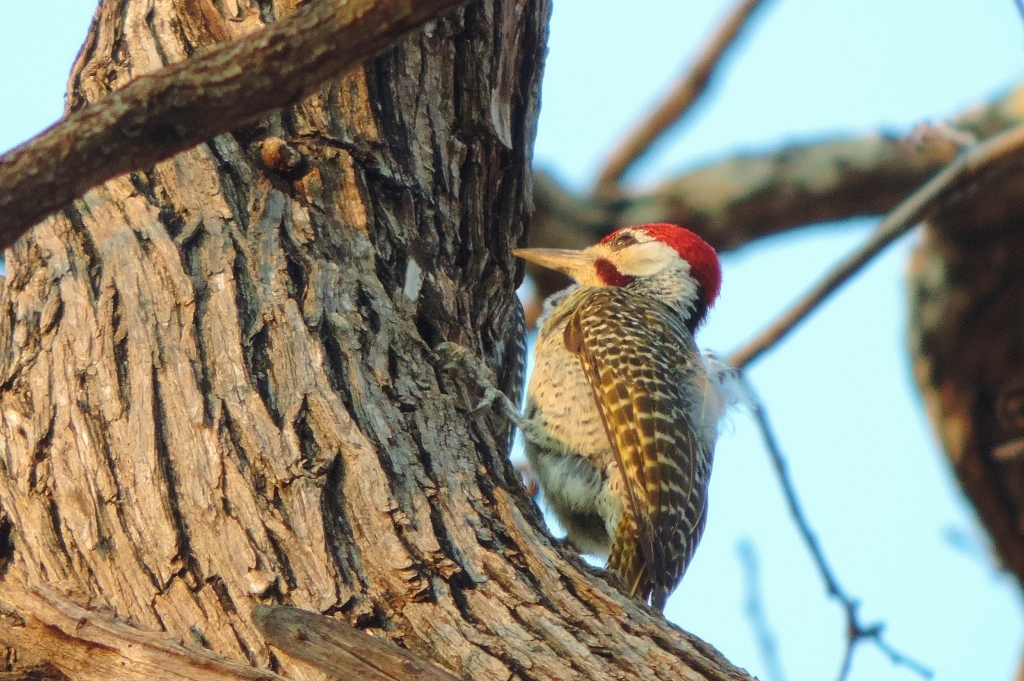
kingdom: Animalia
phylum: Chordata
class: Aves
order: Piciformes
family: Picidae
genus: Campethera
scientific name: Campethera bennettii
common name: Bennett's woodpecker
